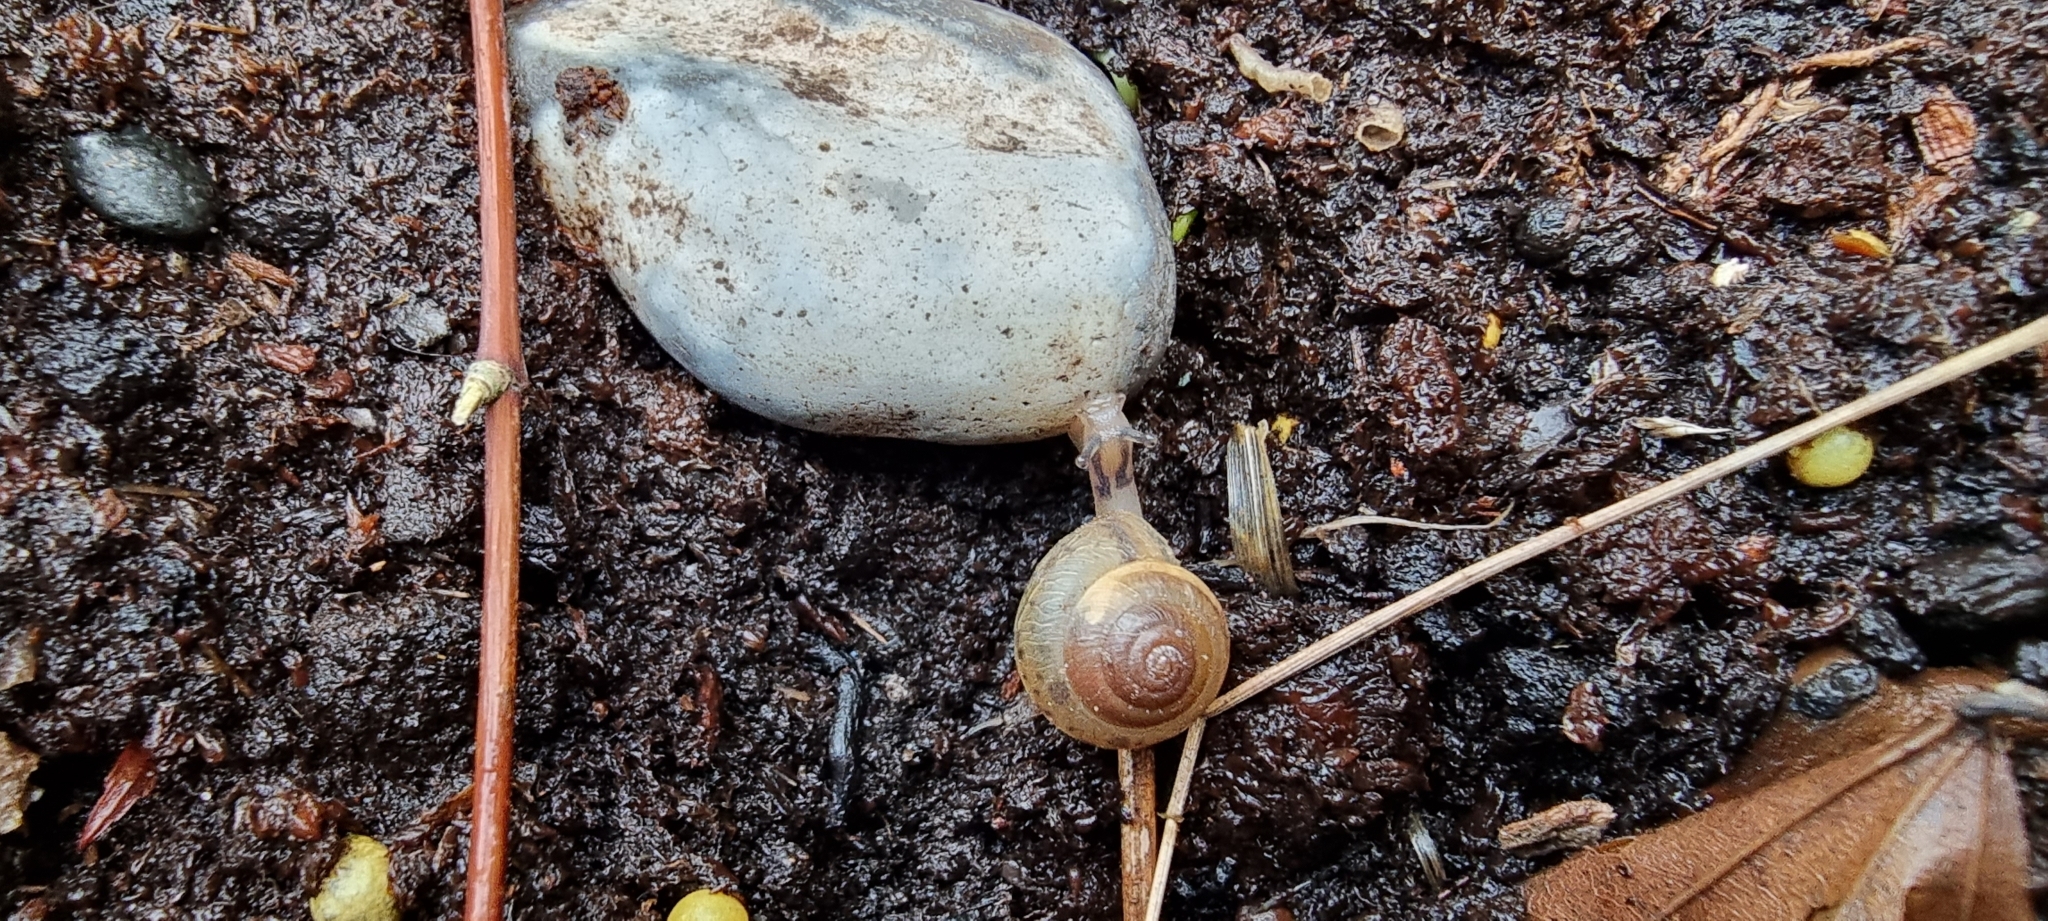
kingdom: Animalia
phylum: Mollusca
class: Gastropoda
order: Stylommatophora
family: Hygromiidae
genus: Hygromia
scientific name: Hygromia cinctella
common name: Girdled snail
